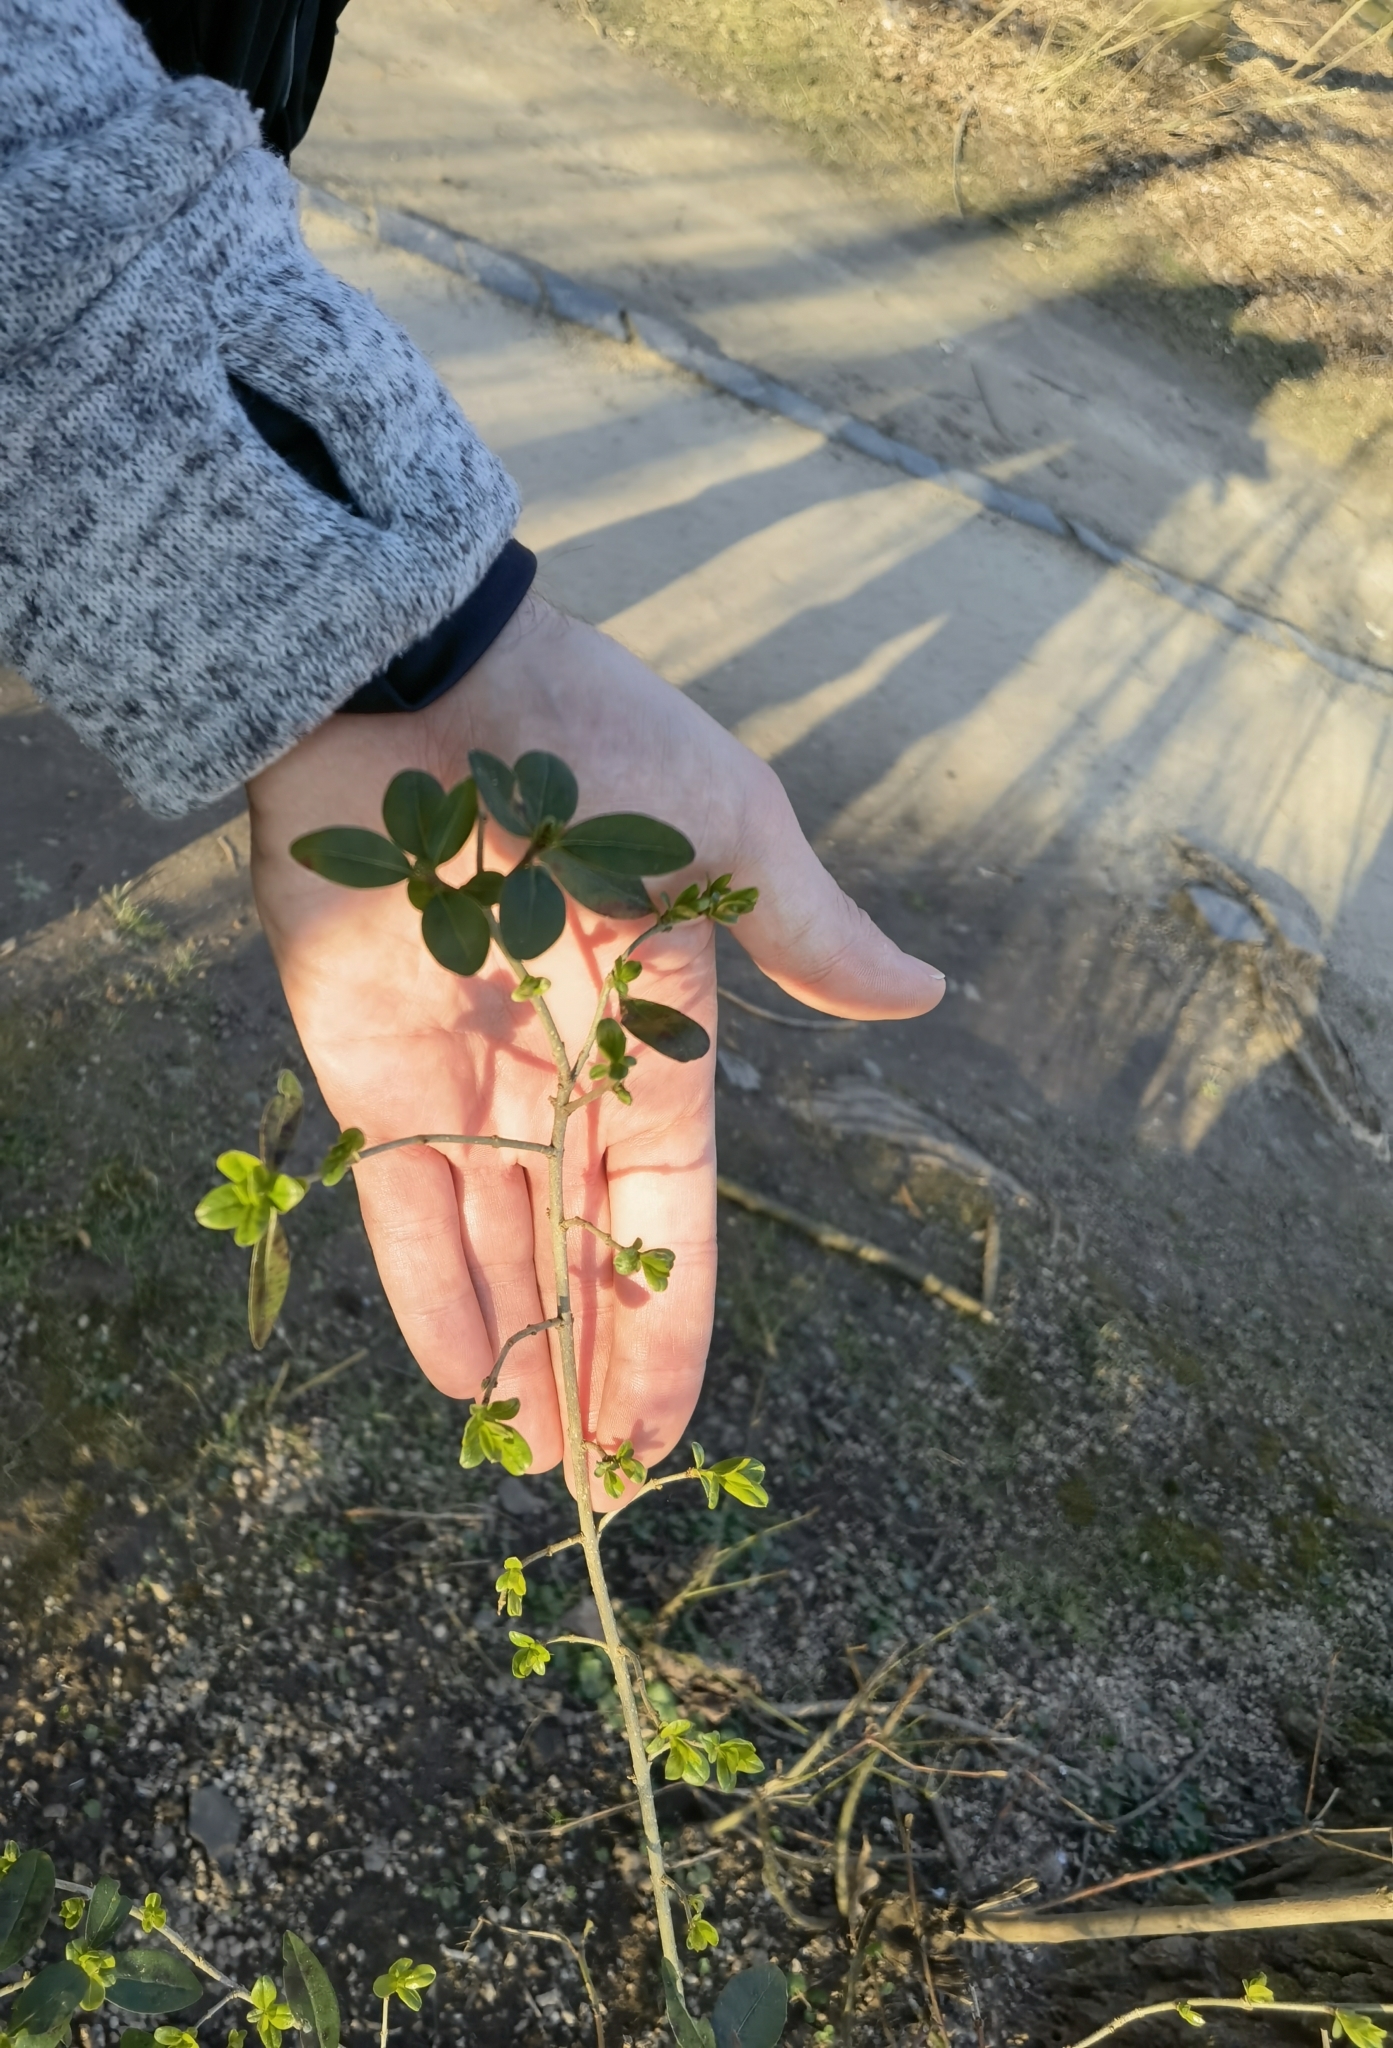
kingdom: Plantae
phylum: Tracheophyta
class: Magnoliopsida
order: Lamiales
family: Oleaceae
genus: Ligustrum
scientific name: Ligustrum vulgare
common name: Wild privet
